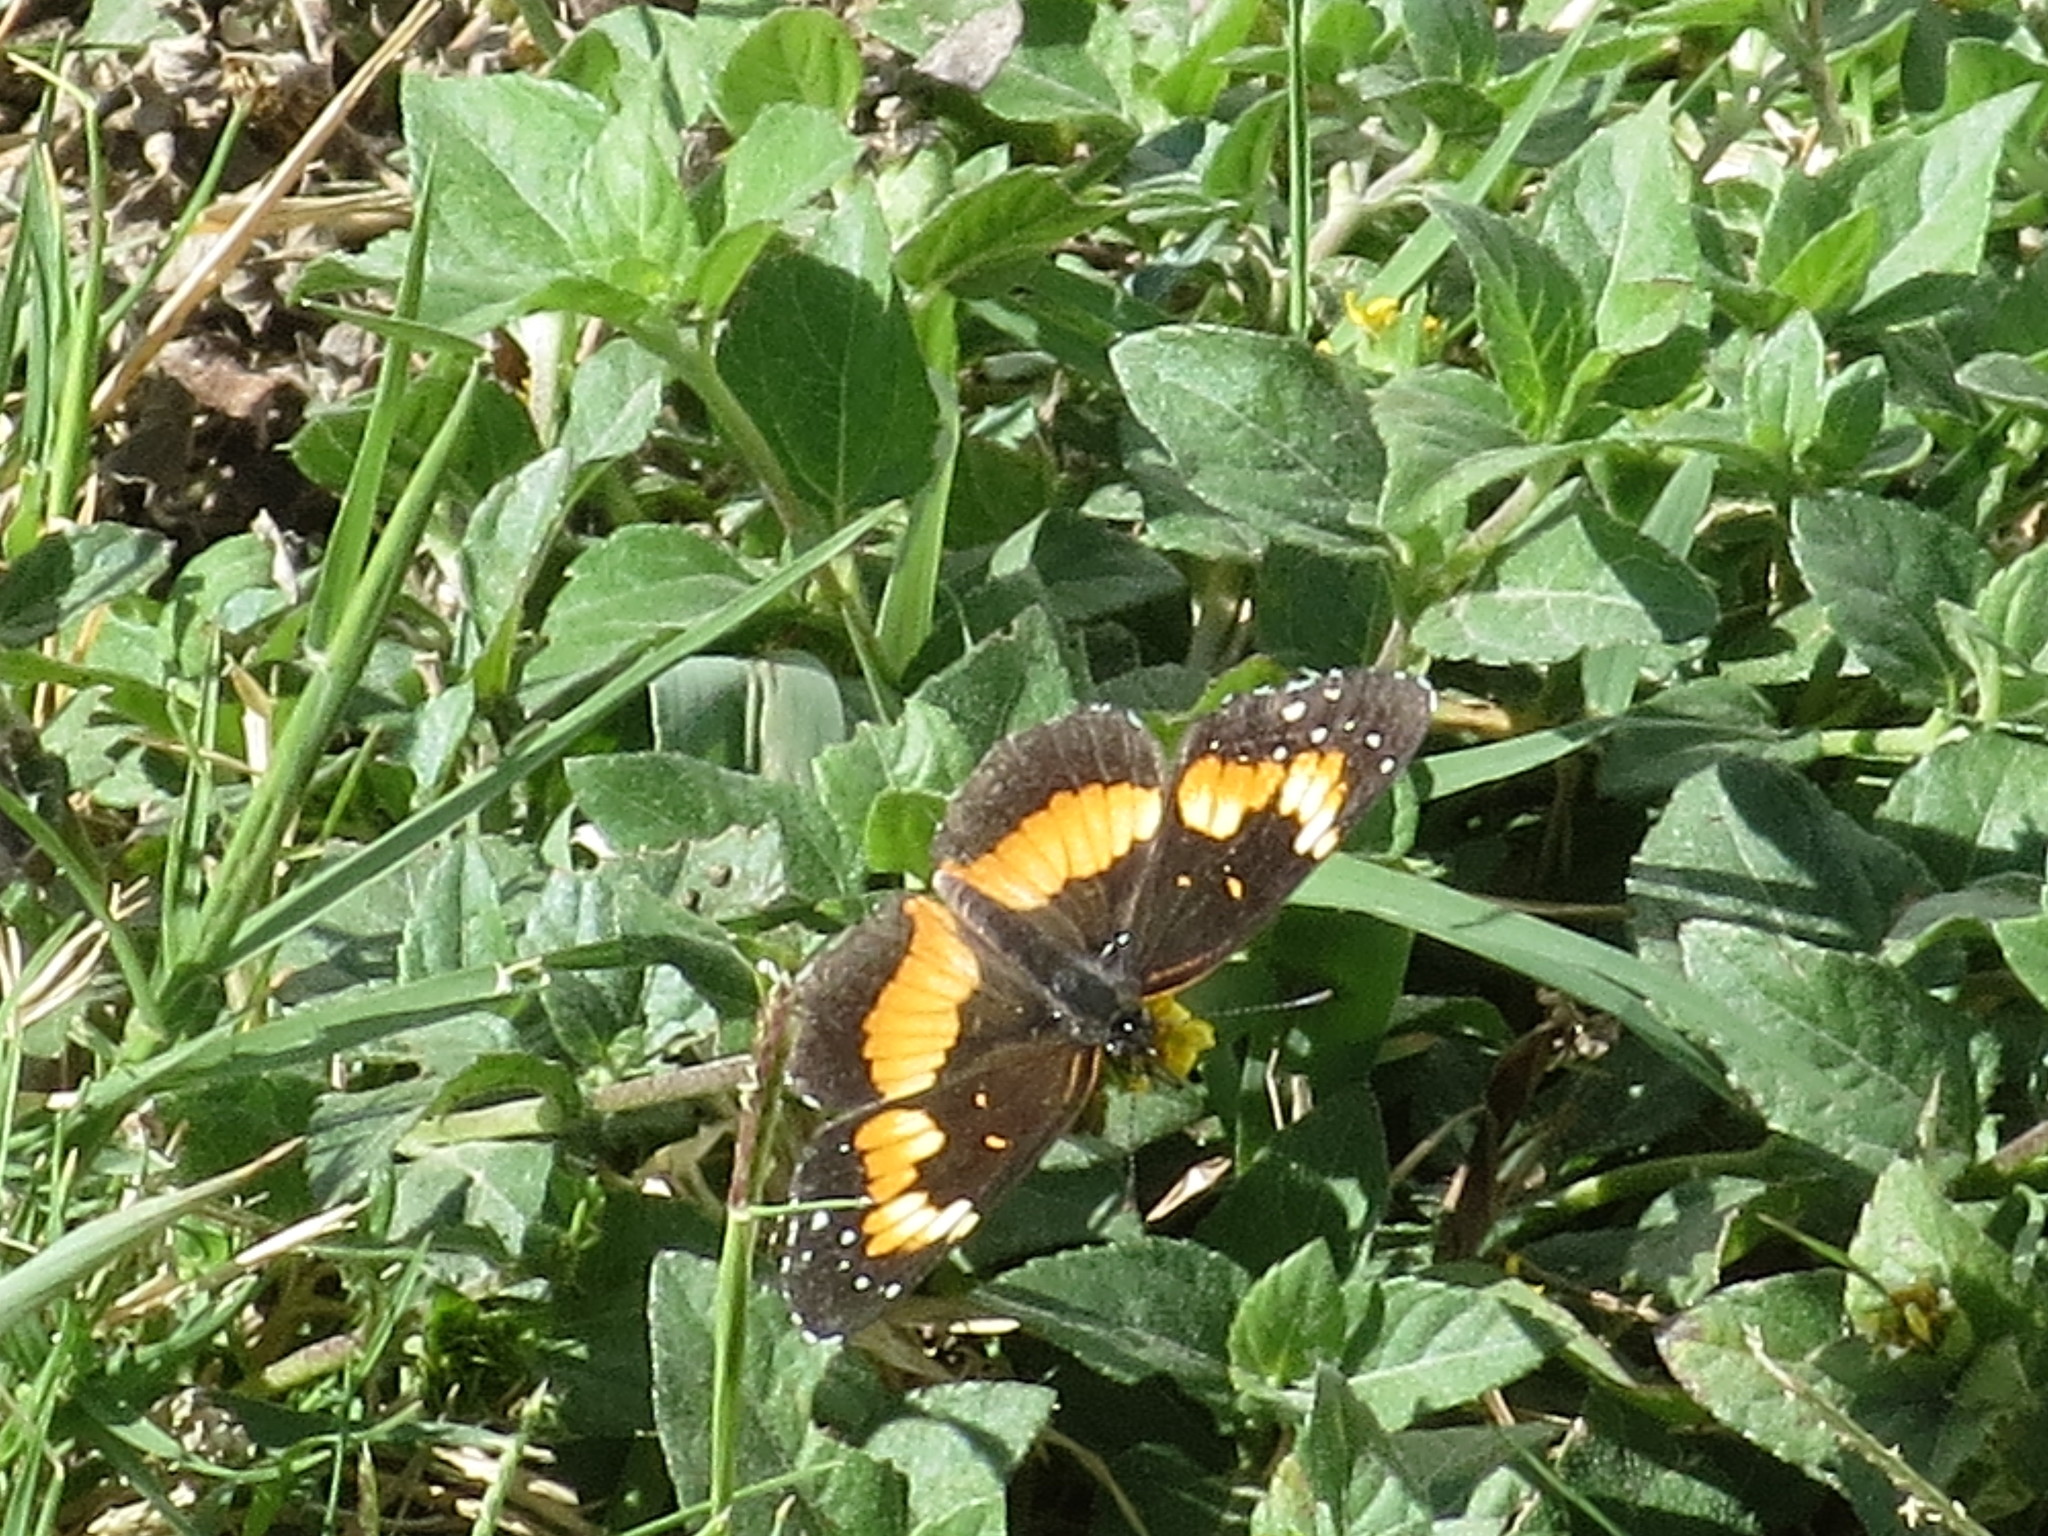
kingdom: Animalia
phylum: Arthropoda
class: Insecta
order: Lepidoptera
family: Nymphalidae
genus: Chlosyne
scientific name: Chlosyne lacinia
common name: Bordered patch
